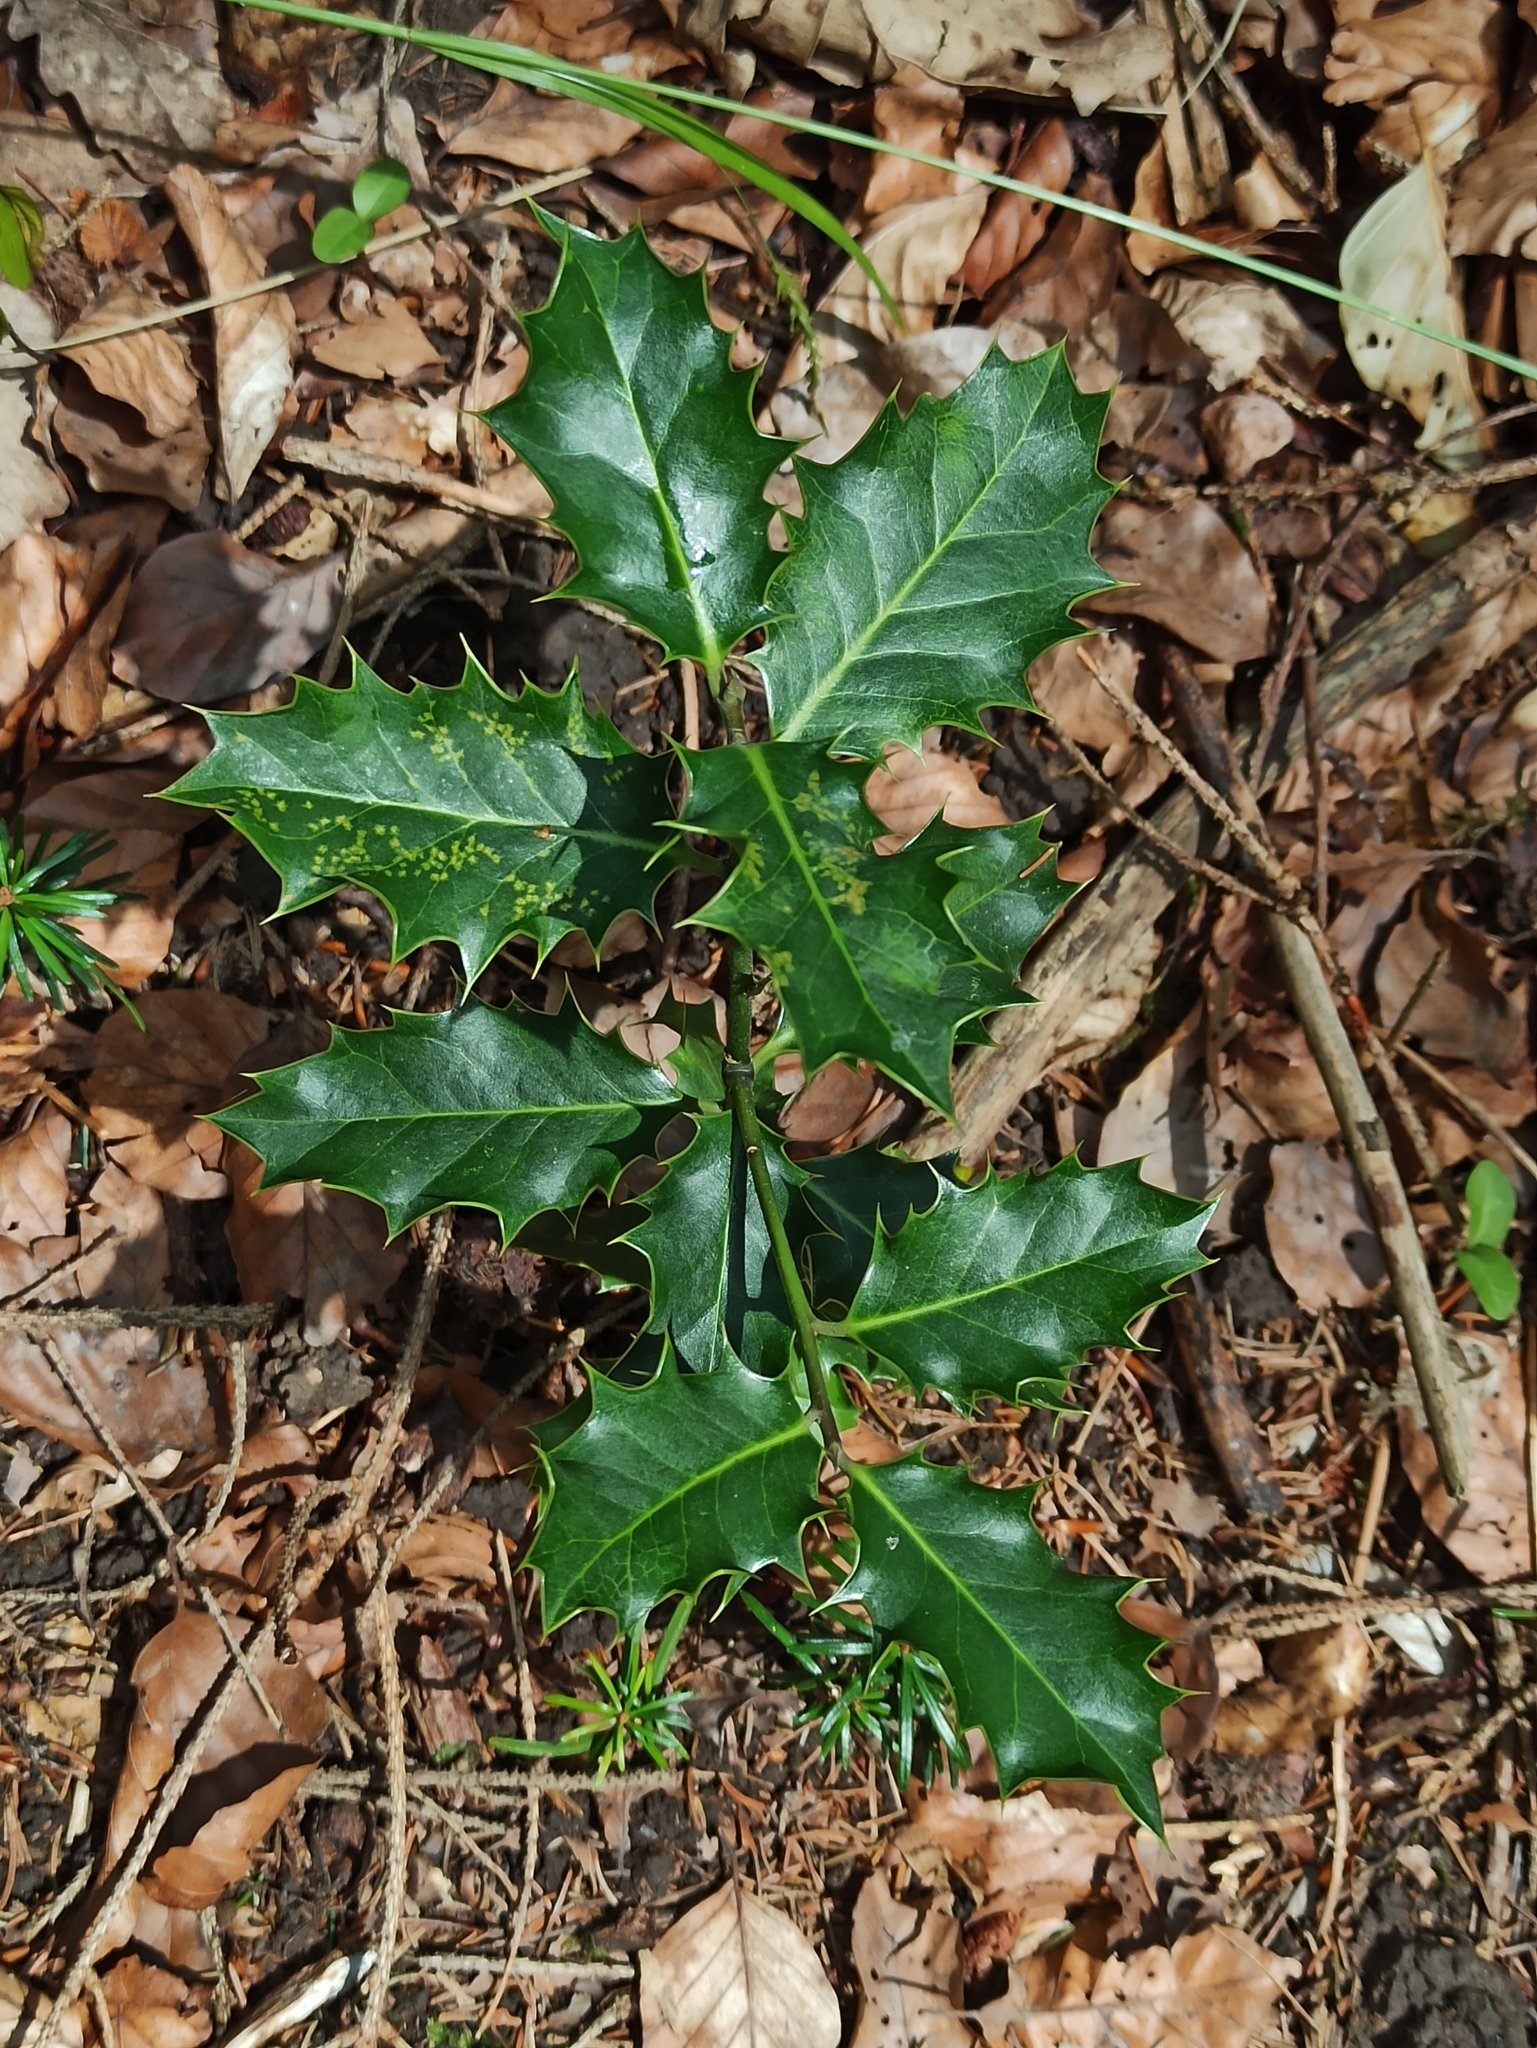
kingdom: Plantae
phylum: Tracheophyta
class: Magnoliopsida
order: Aquifoliales
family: Aquifoliaceae
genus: Ilex
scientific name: Ilex aquifolium
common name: English holly
